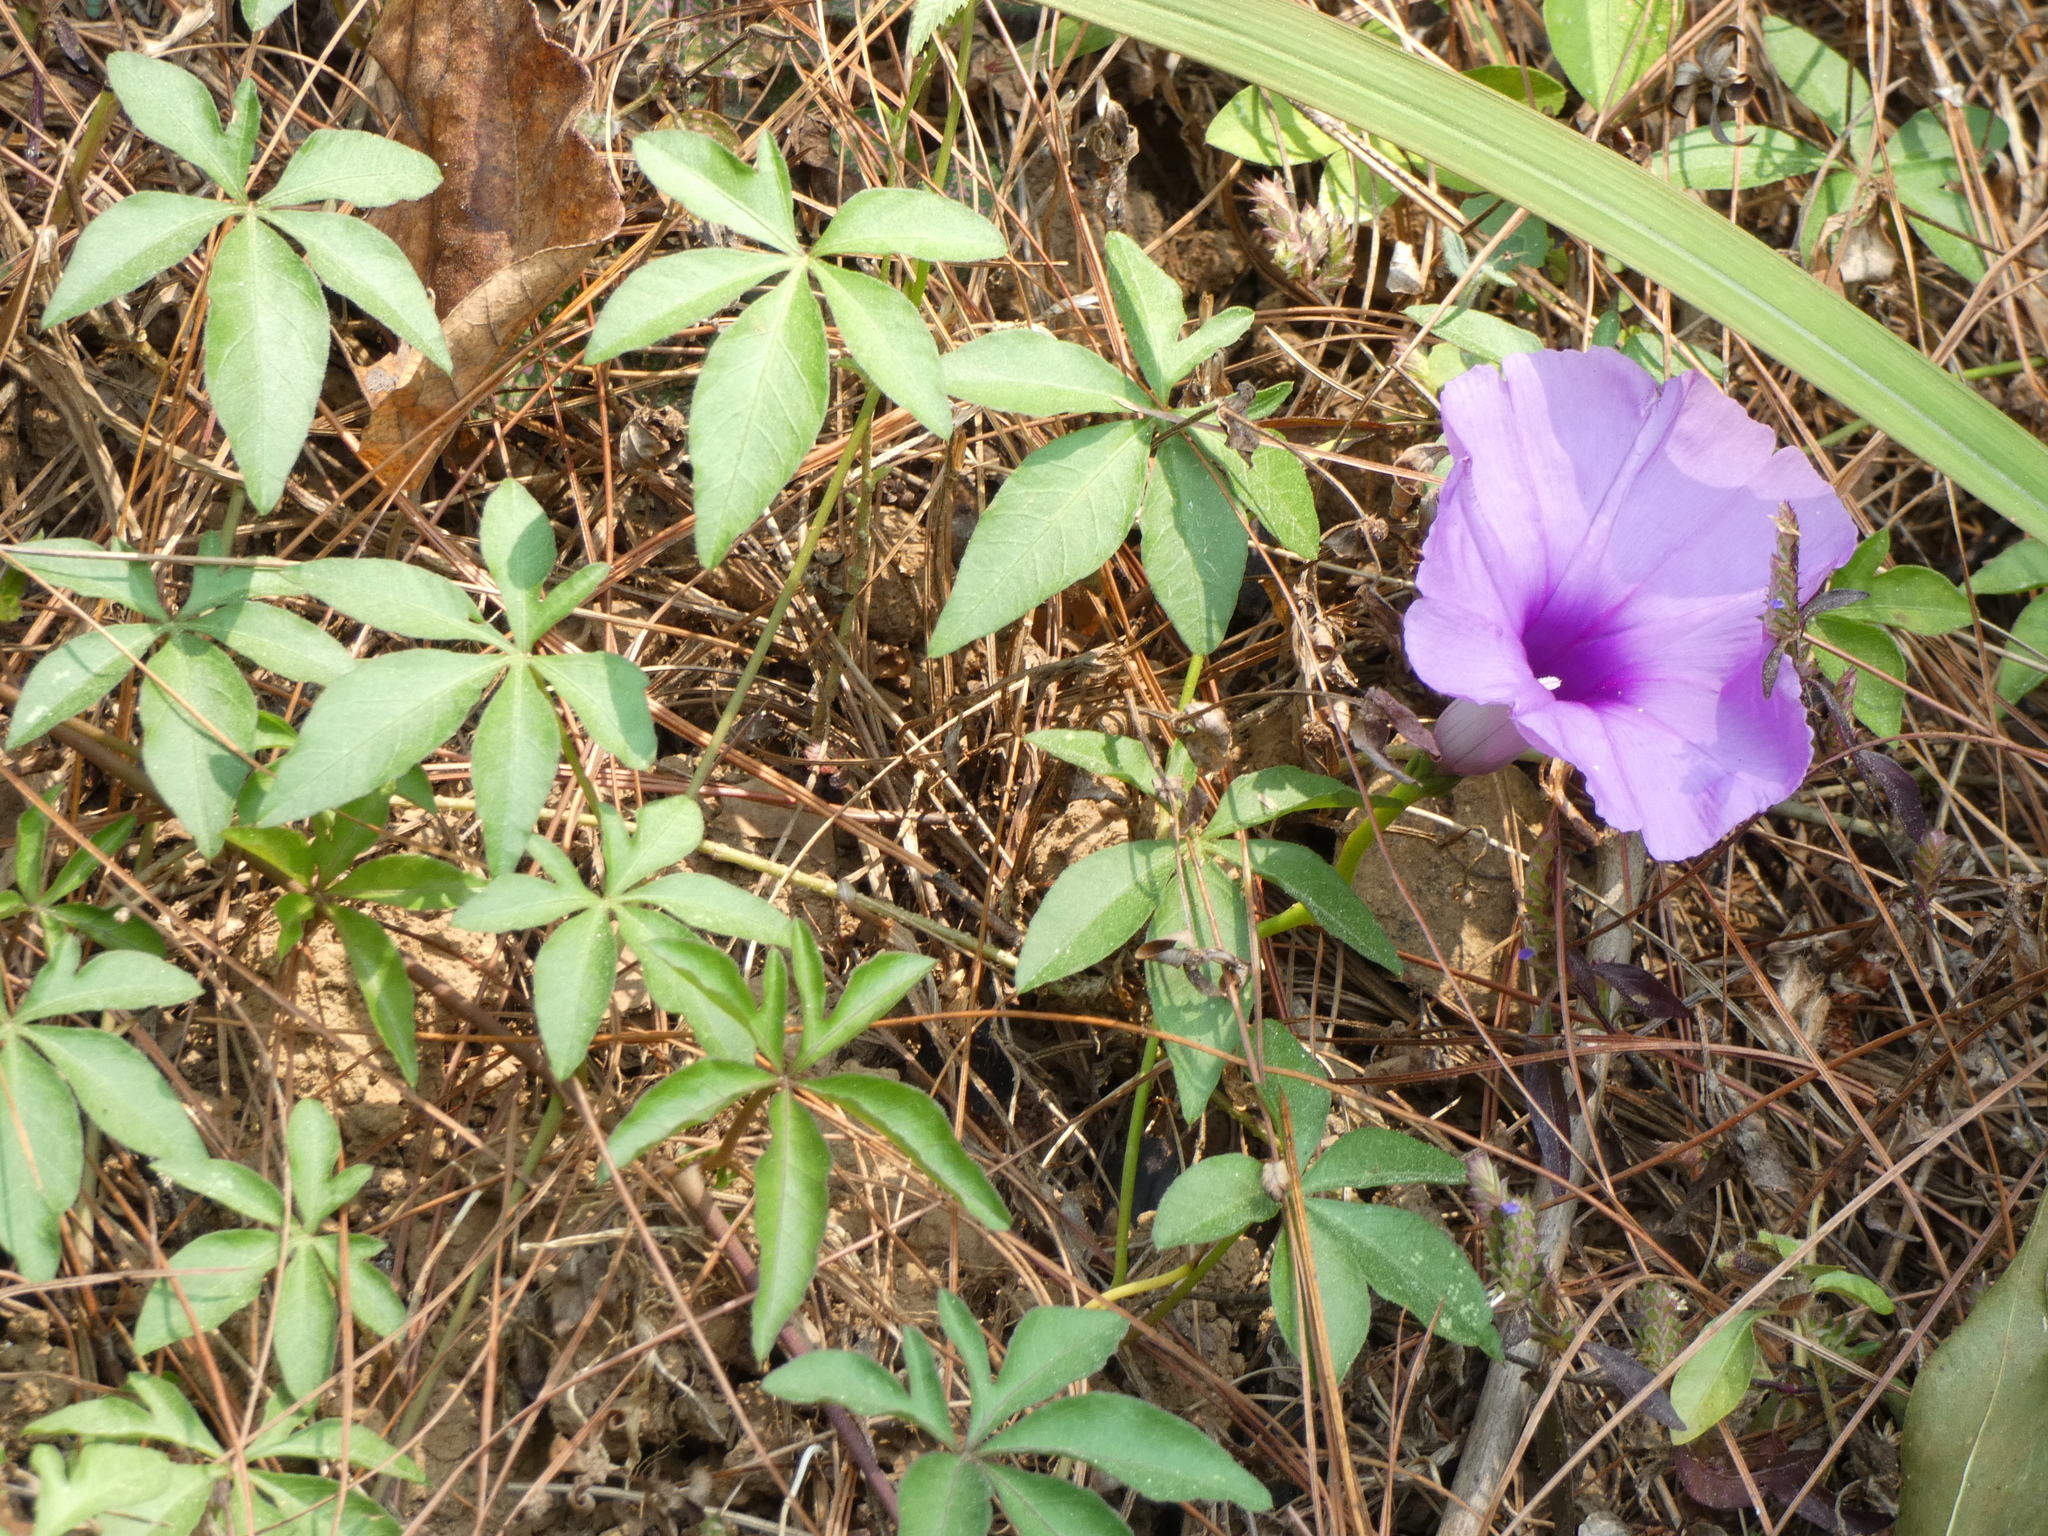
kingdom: Plantae
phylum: Tracheophyta
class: Magnoliopsida
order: Solanales
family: Convolvulaceae
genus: Ipomoea
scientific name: Ipomoea cairica
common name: Mile a minute vine
